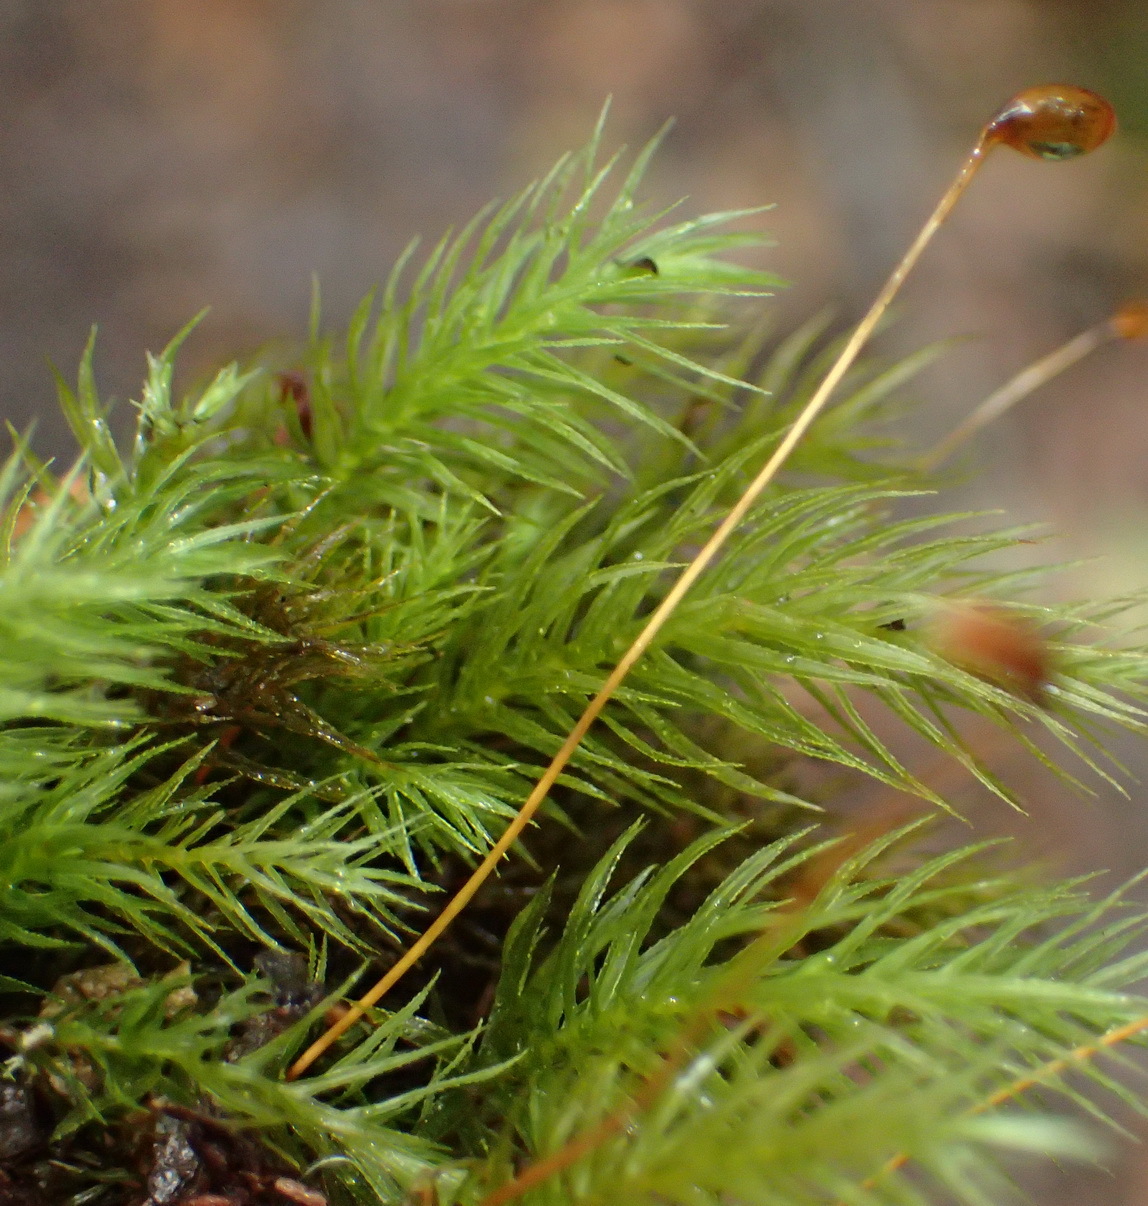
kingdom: Plantae
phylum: Bryophyta
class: Bryopsida
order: Rhizogoniales
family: Calomniaceae
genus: Pyrrhobryum
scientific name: Pyrrhobryum spiniforme
